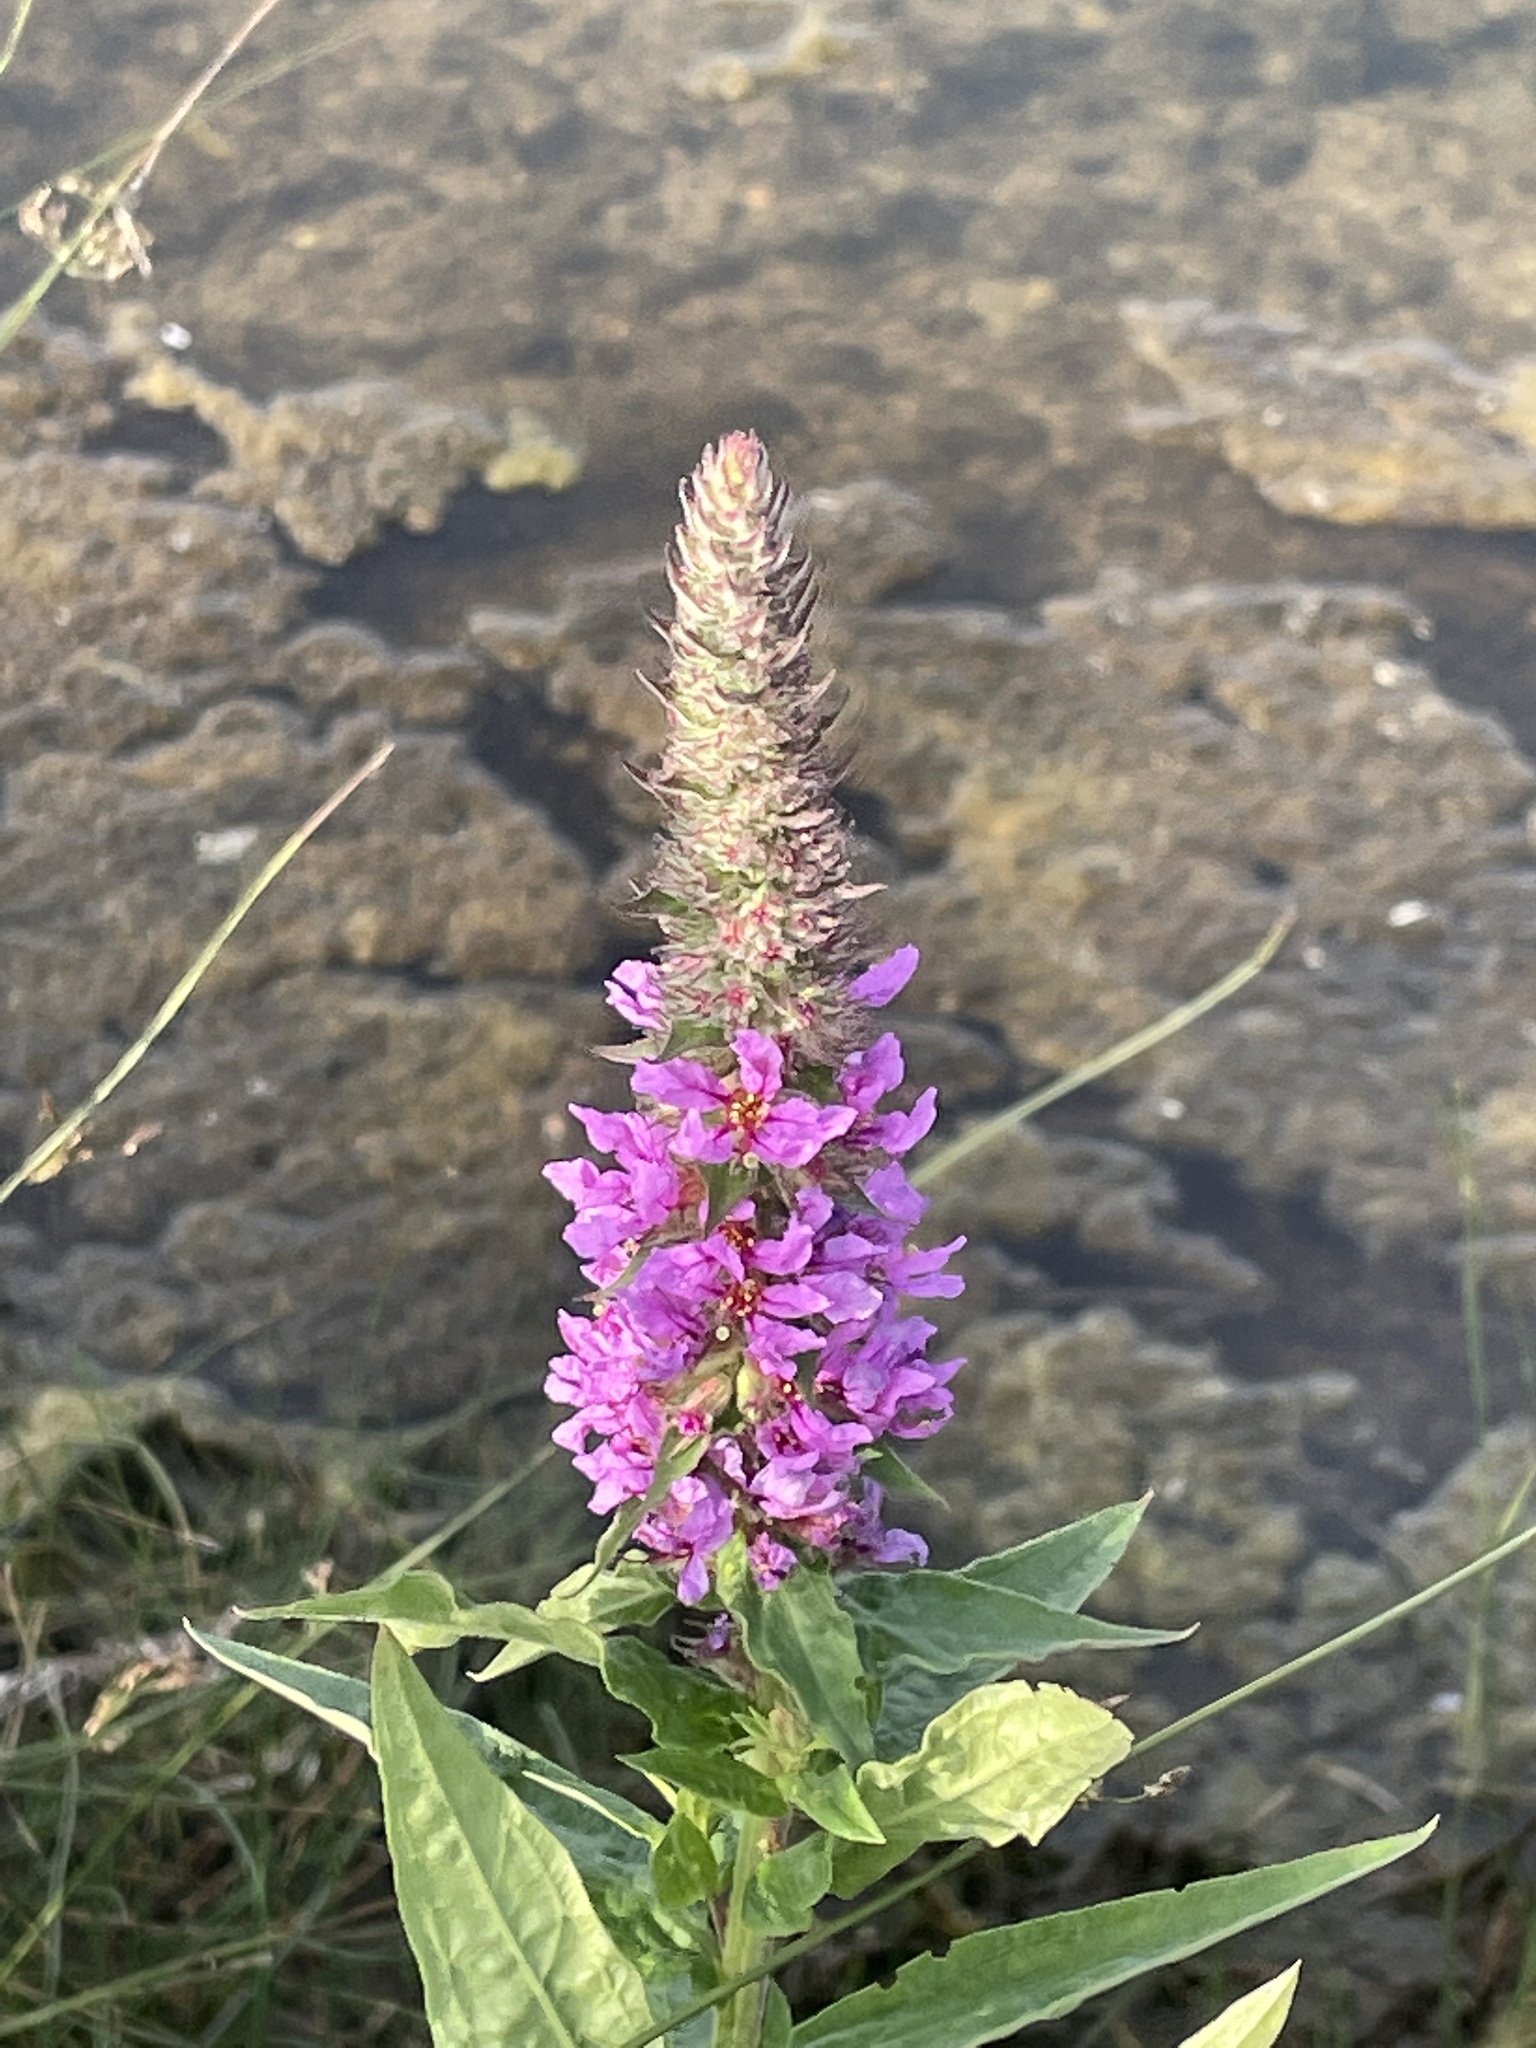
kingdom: Plantae
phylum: Tracheophyta
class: Magnoliopsida
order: Myrtales
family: Lythraceae
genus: Lythrum
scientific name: Lythrum salicaria
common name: Purple loosestrife
